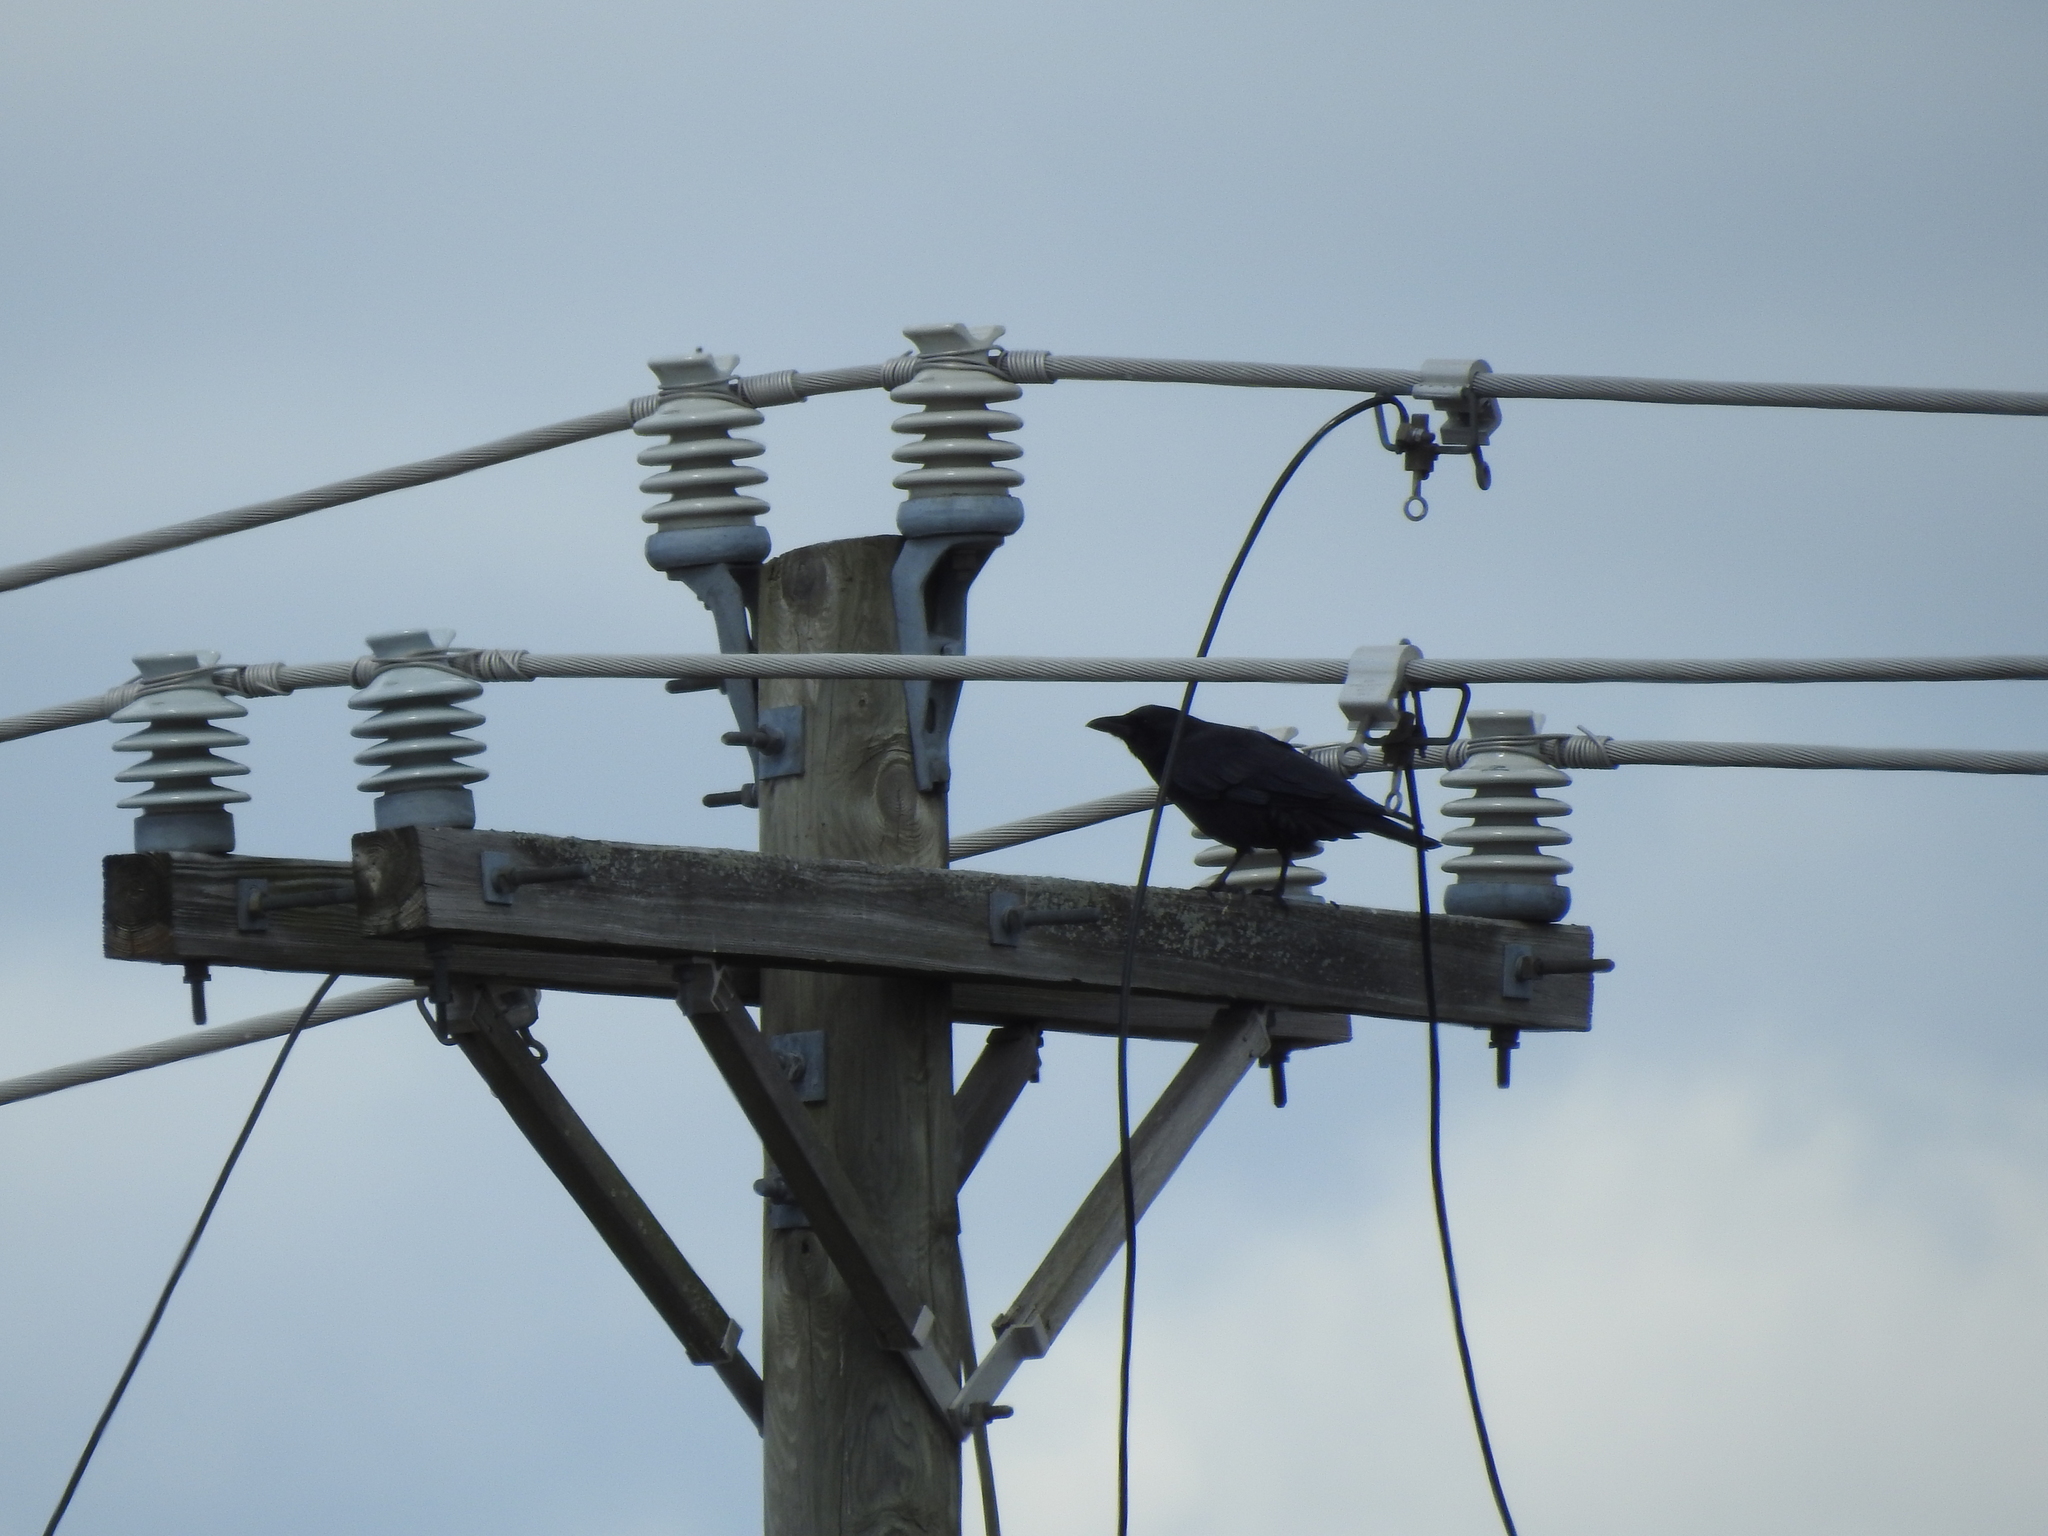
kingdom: Animalia
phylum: Chordata
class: Aves
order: Passeriformes
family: Corvidae
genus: Corvus
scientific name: Corvus brachyrhynchos
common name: American crow
